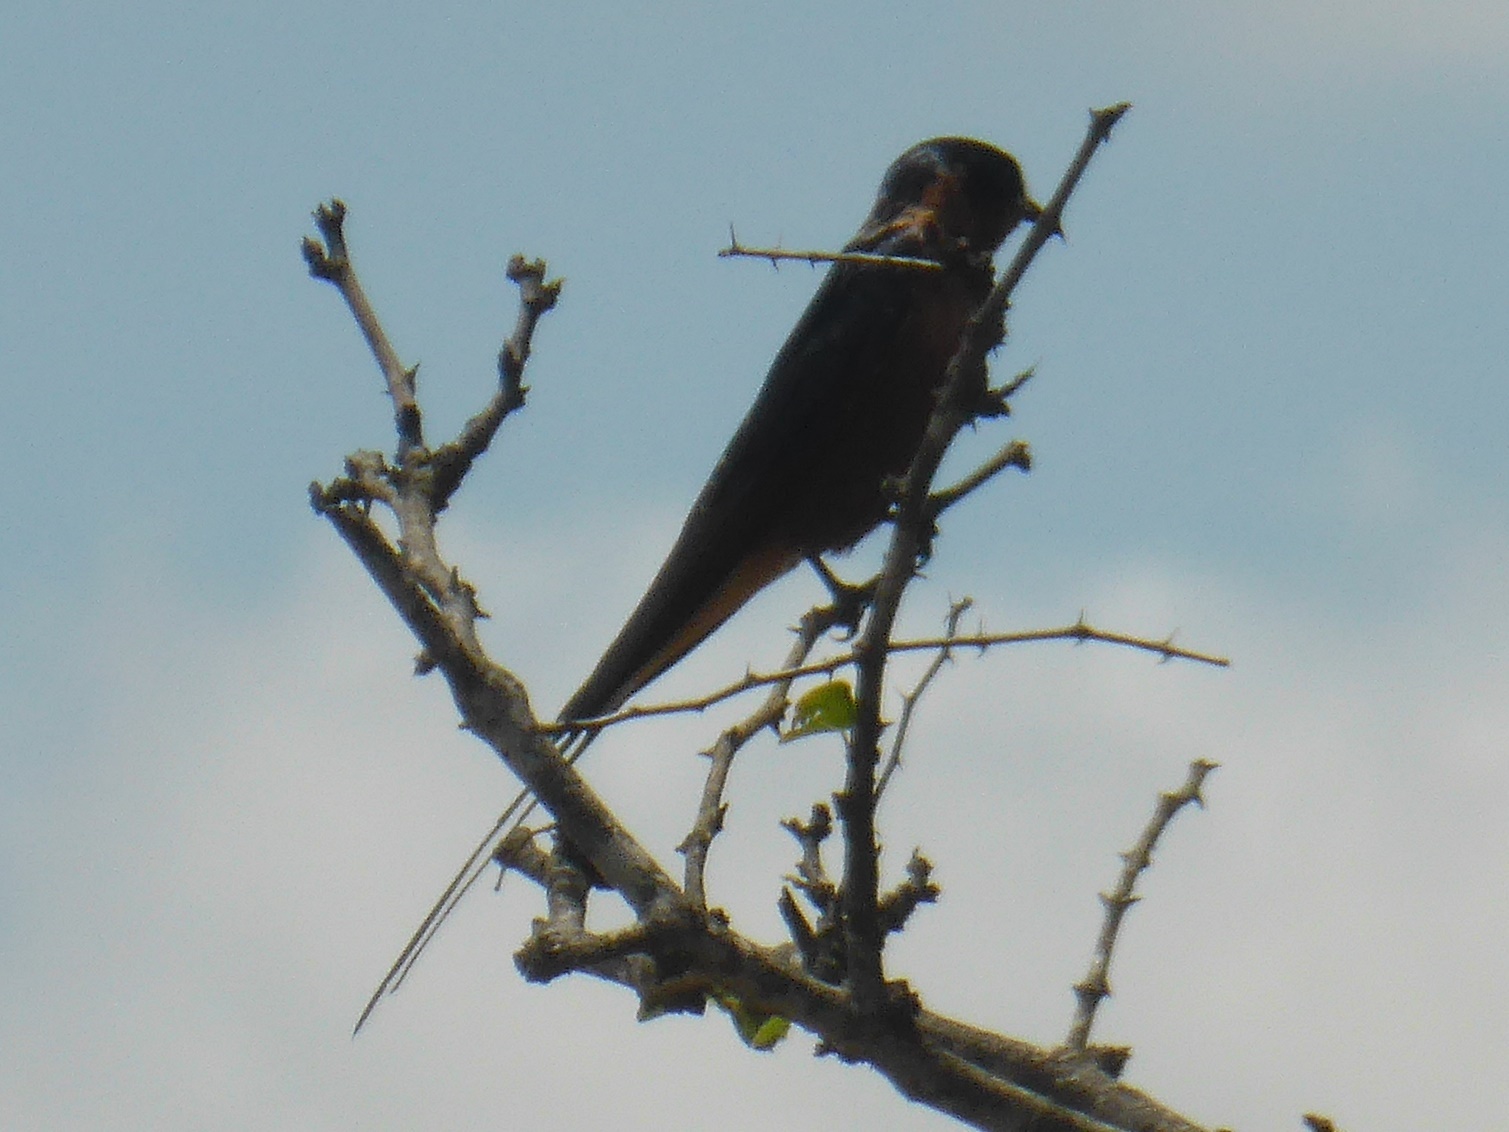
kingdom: Animalia
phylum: Chordata
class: Aves
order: Passeriformes
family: Hirundinidae
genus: Cecropis
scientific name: Cecropis semirufa
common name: Red-breasted swallow
